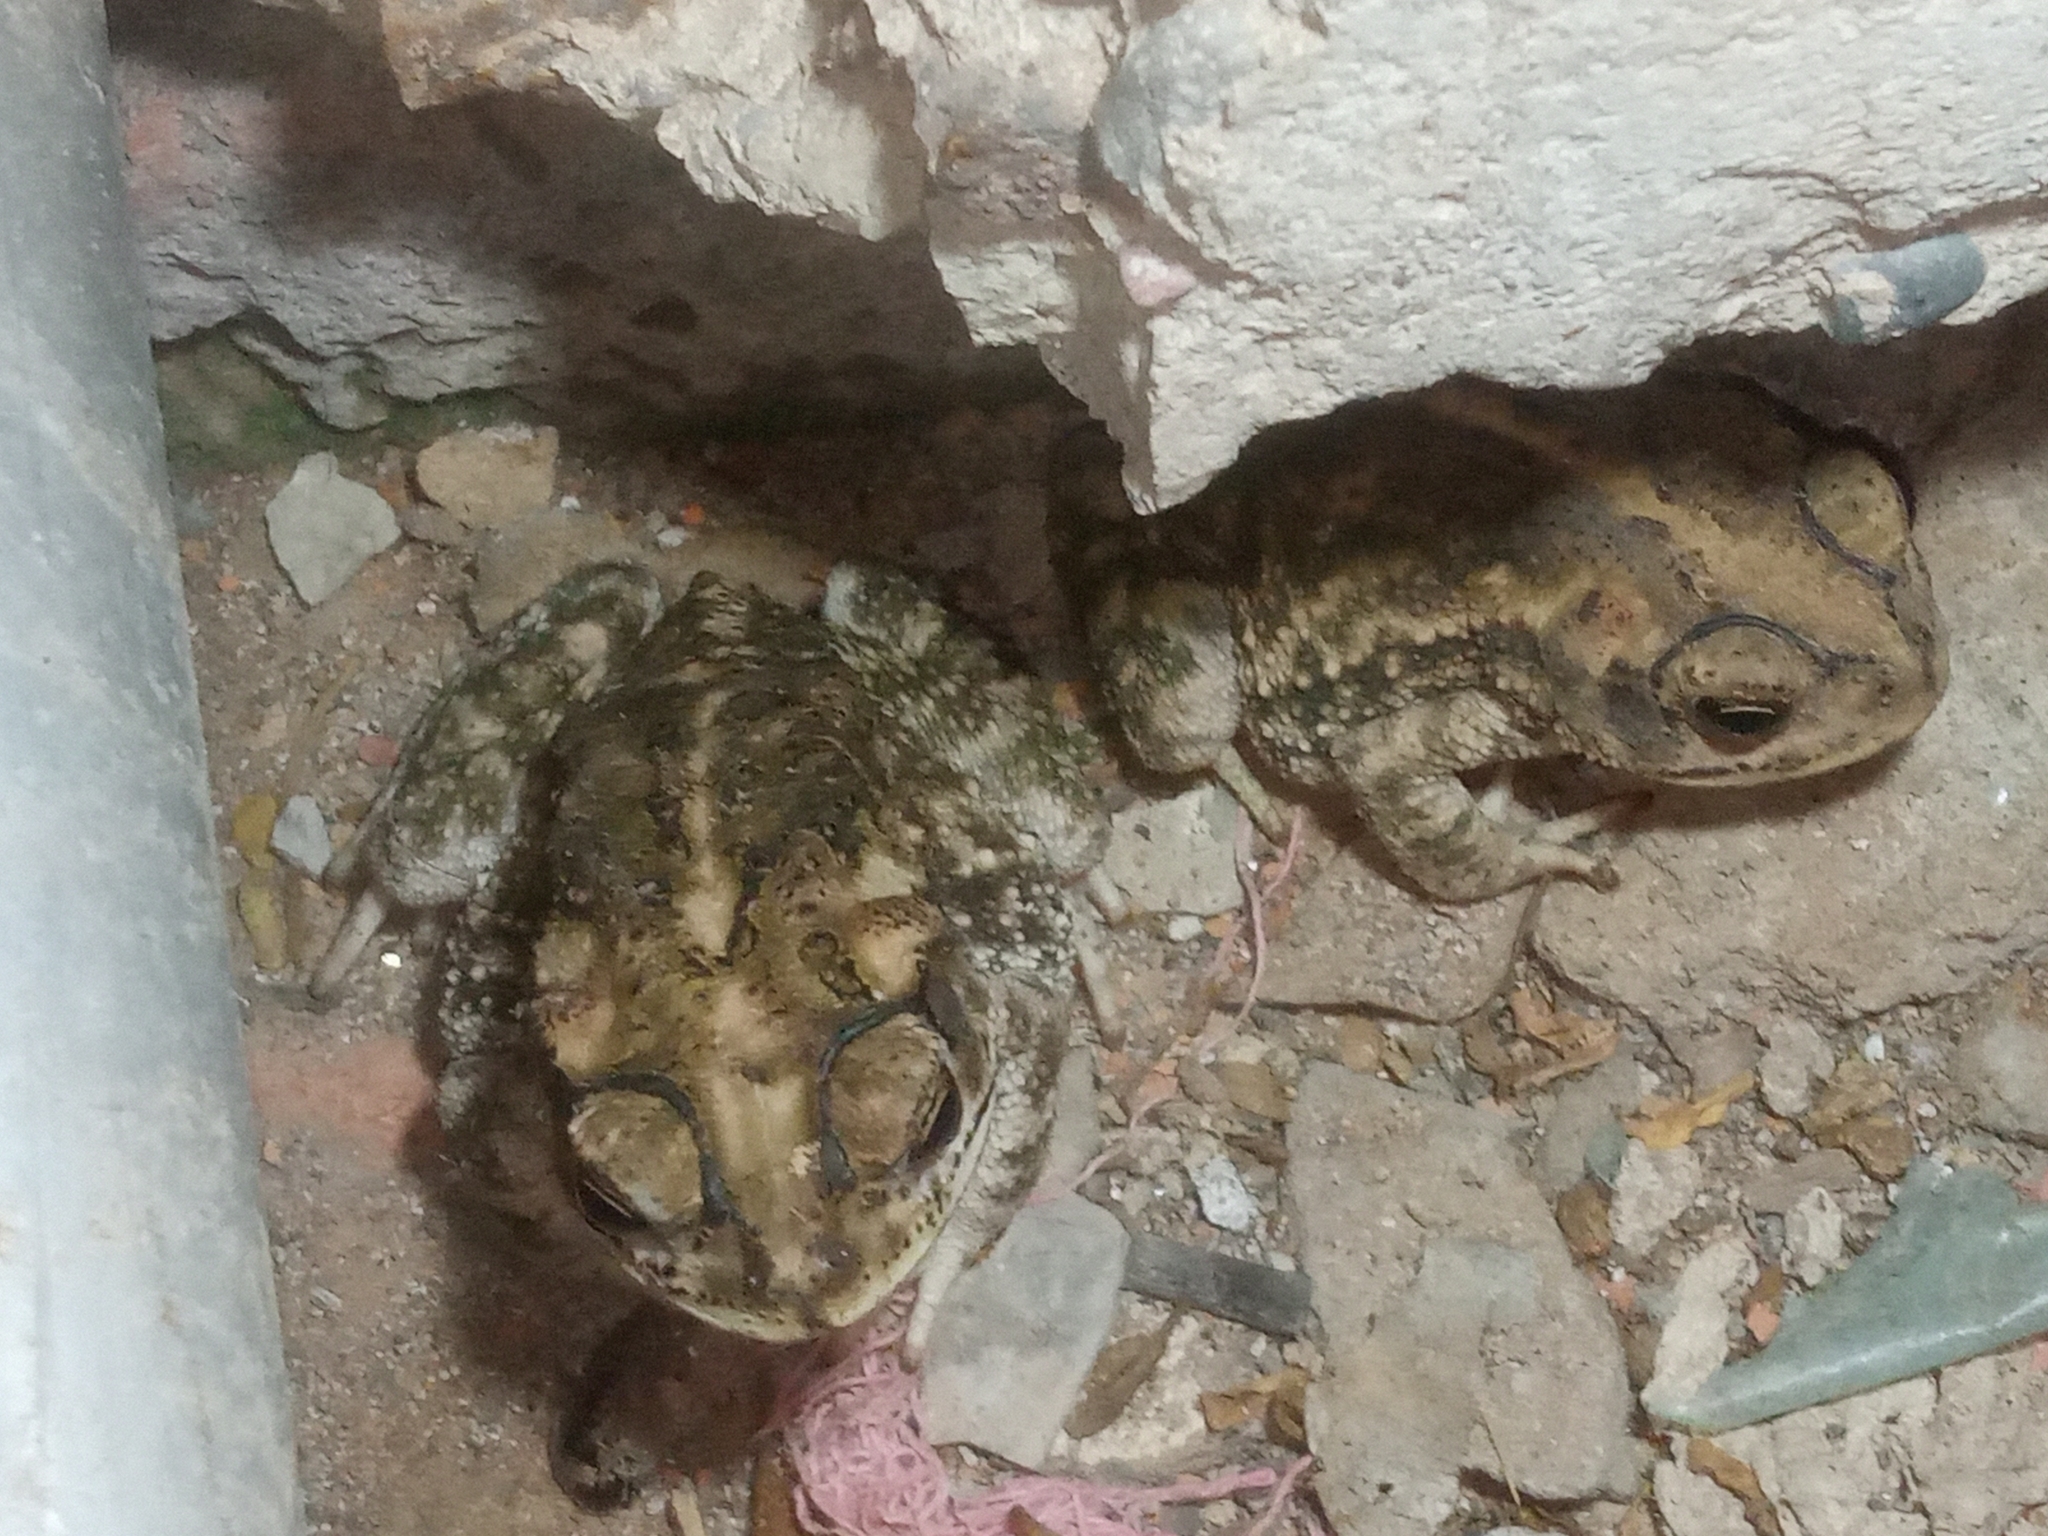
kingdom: Animalia
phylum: Chordata
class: Amphibia
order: Anura
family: Bufonidae
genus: Incilius
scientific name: Incilius mazatlanensis
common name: Sinaloa toad
